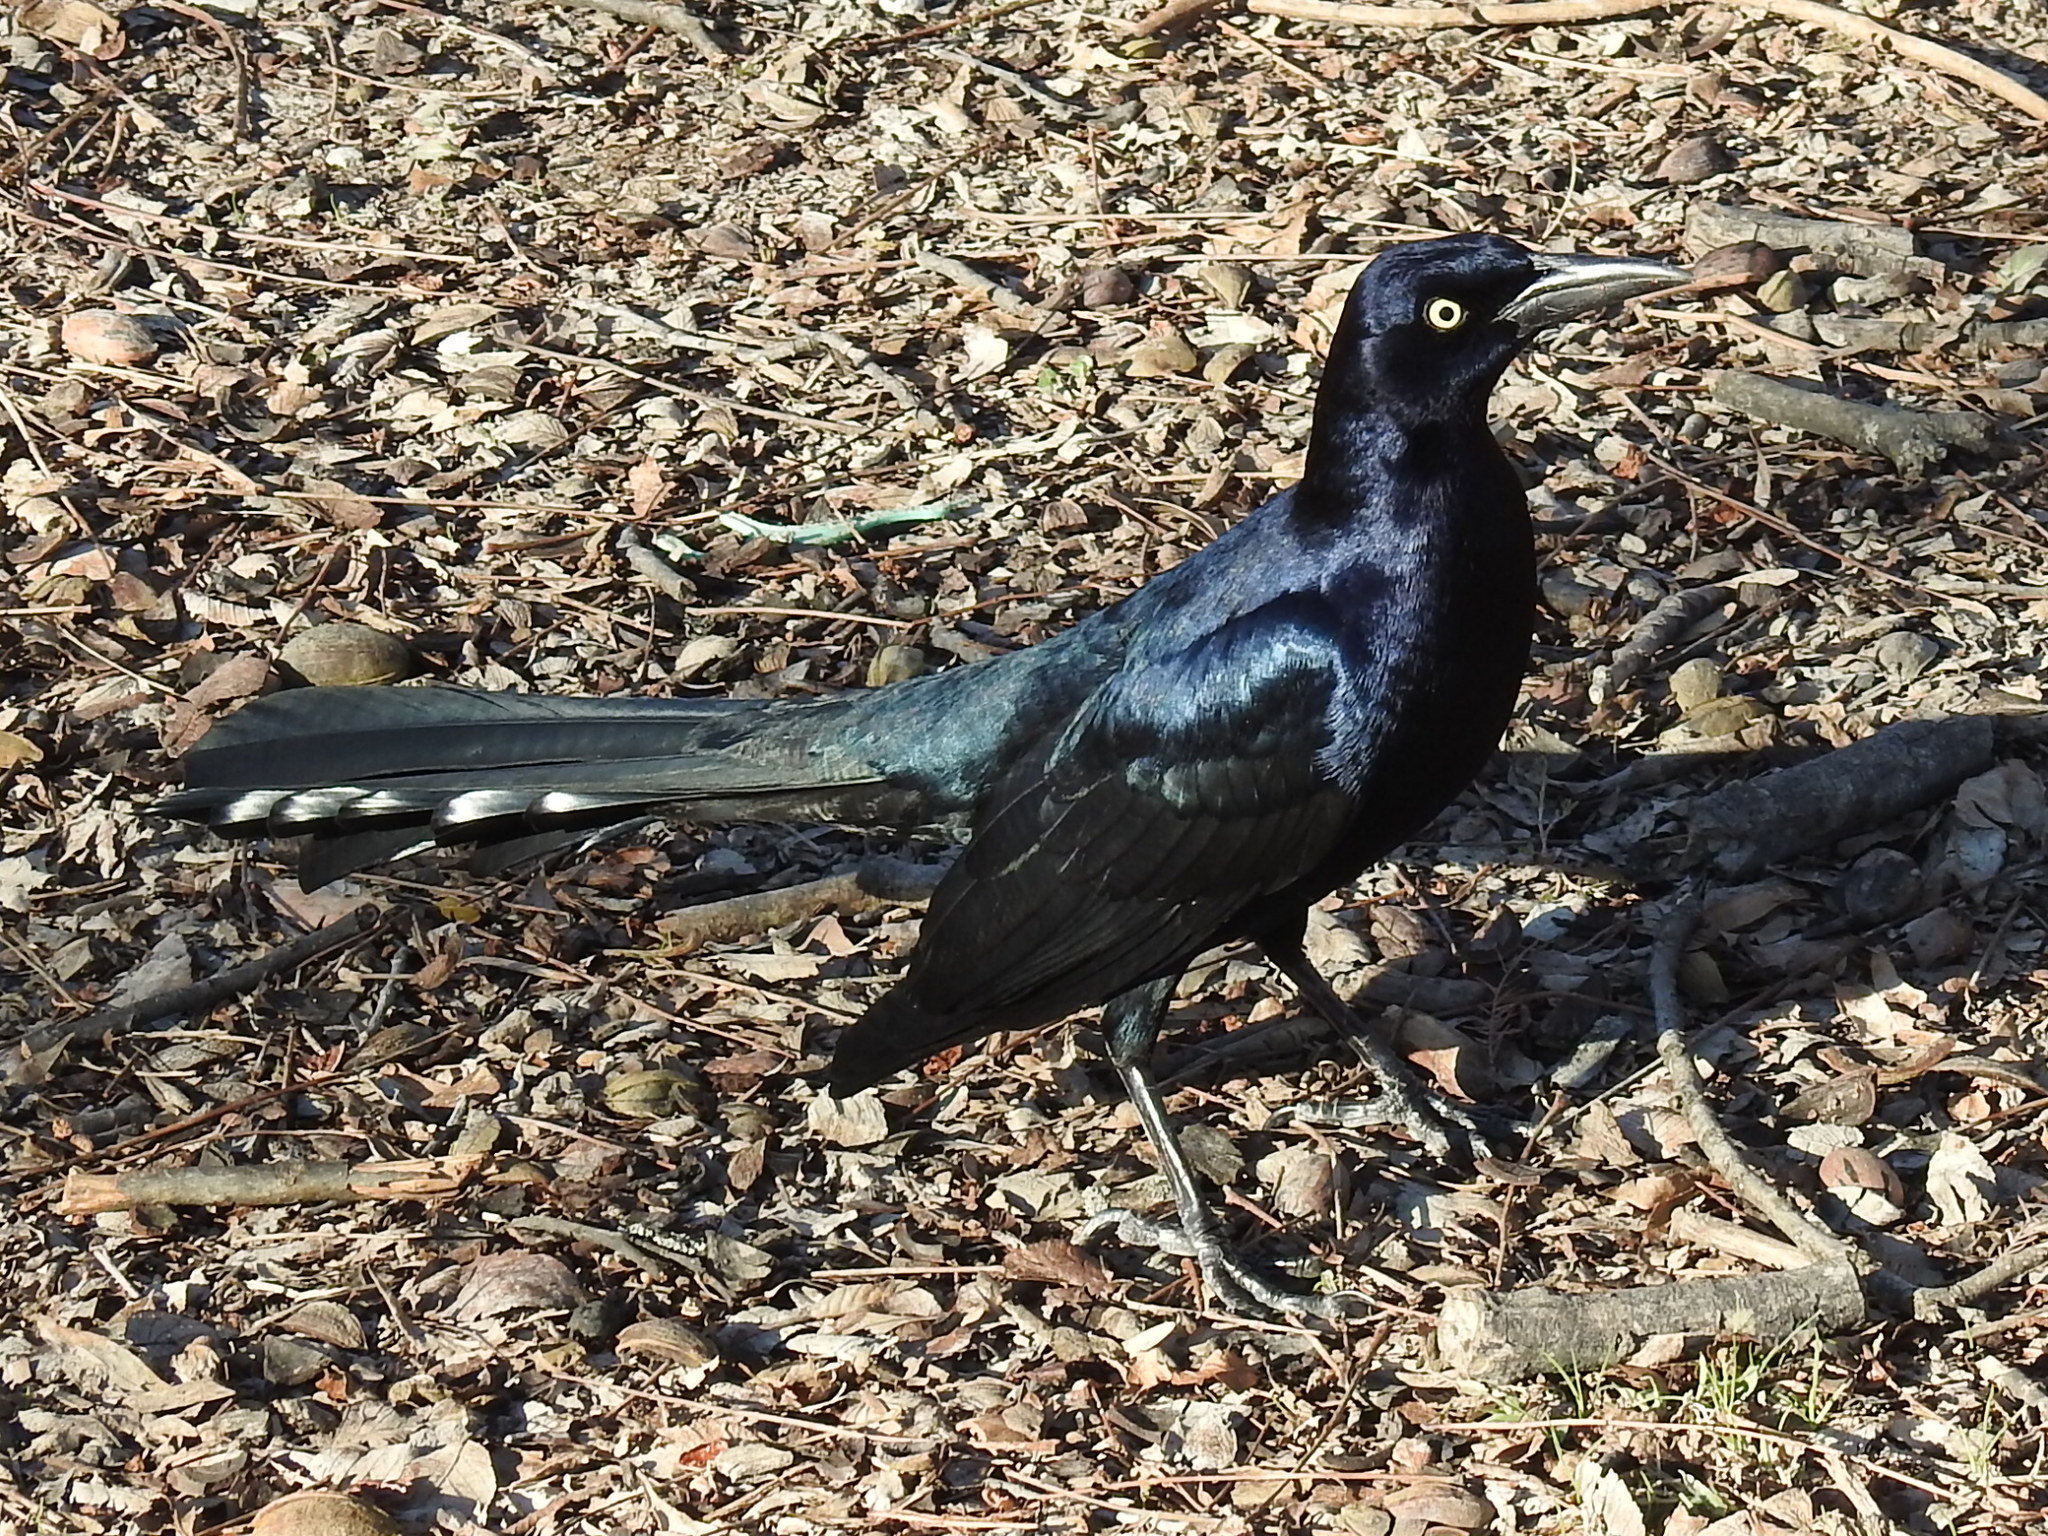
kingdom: Animalia
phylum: Chordata
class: Aves
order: Passeriformes
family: Icteridae
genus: Quiscalus
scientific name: Quiscalus mexicanus
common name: Great-tailed grackle
